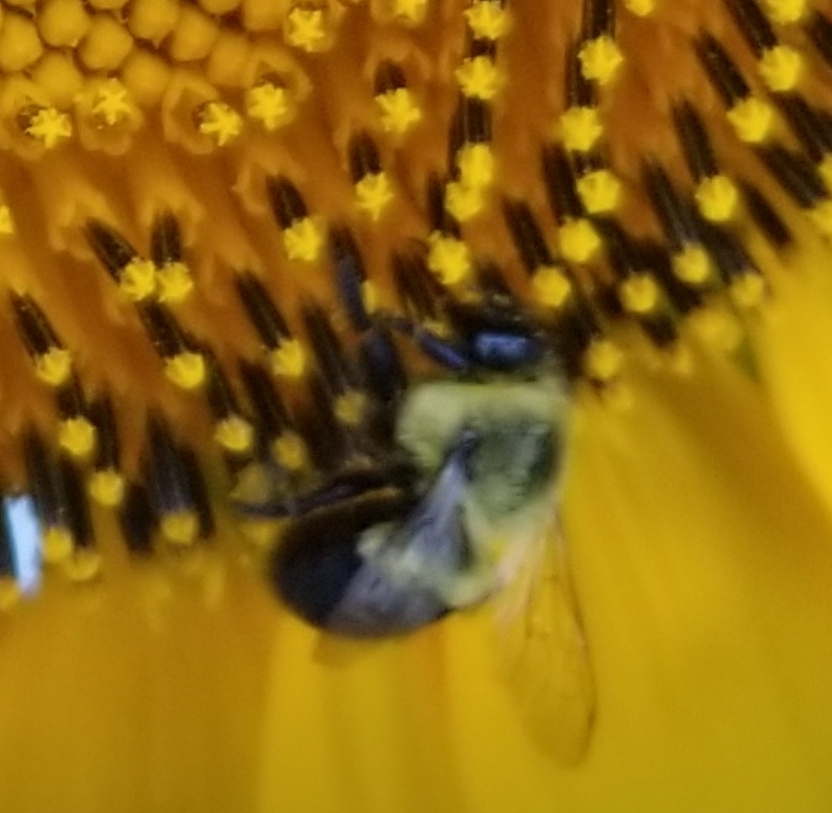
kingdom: Animalia
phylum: Arthropoda
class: Insecta
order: Hymenoptera
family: Apidae
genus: Bombus
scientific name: Bombus impatiens
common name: Common eastern bumble bee
